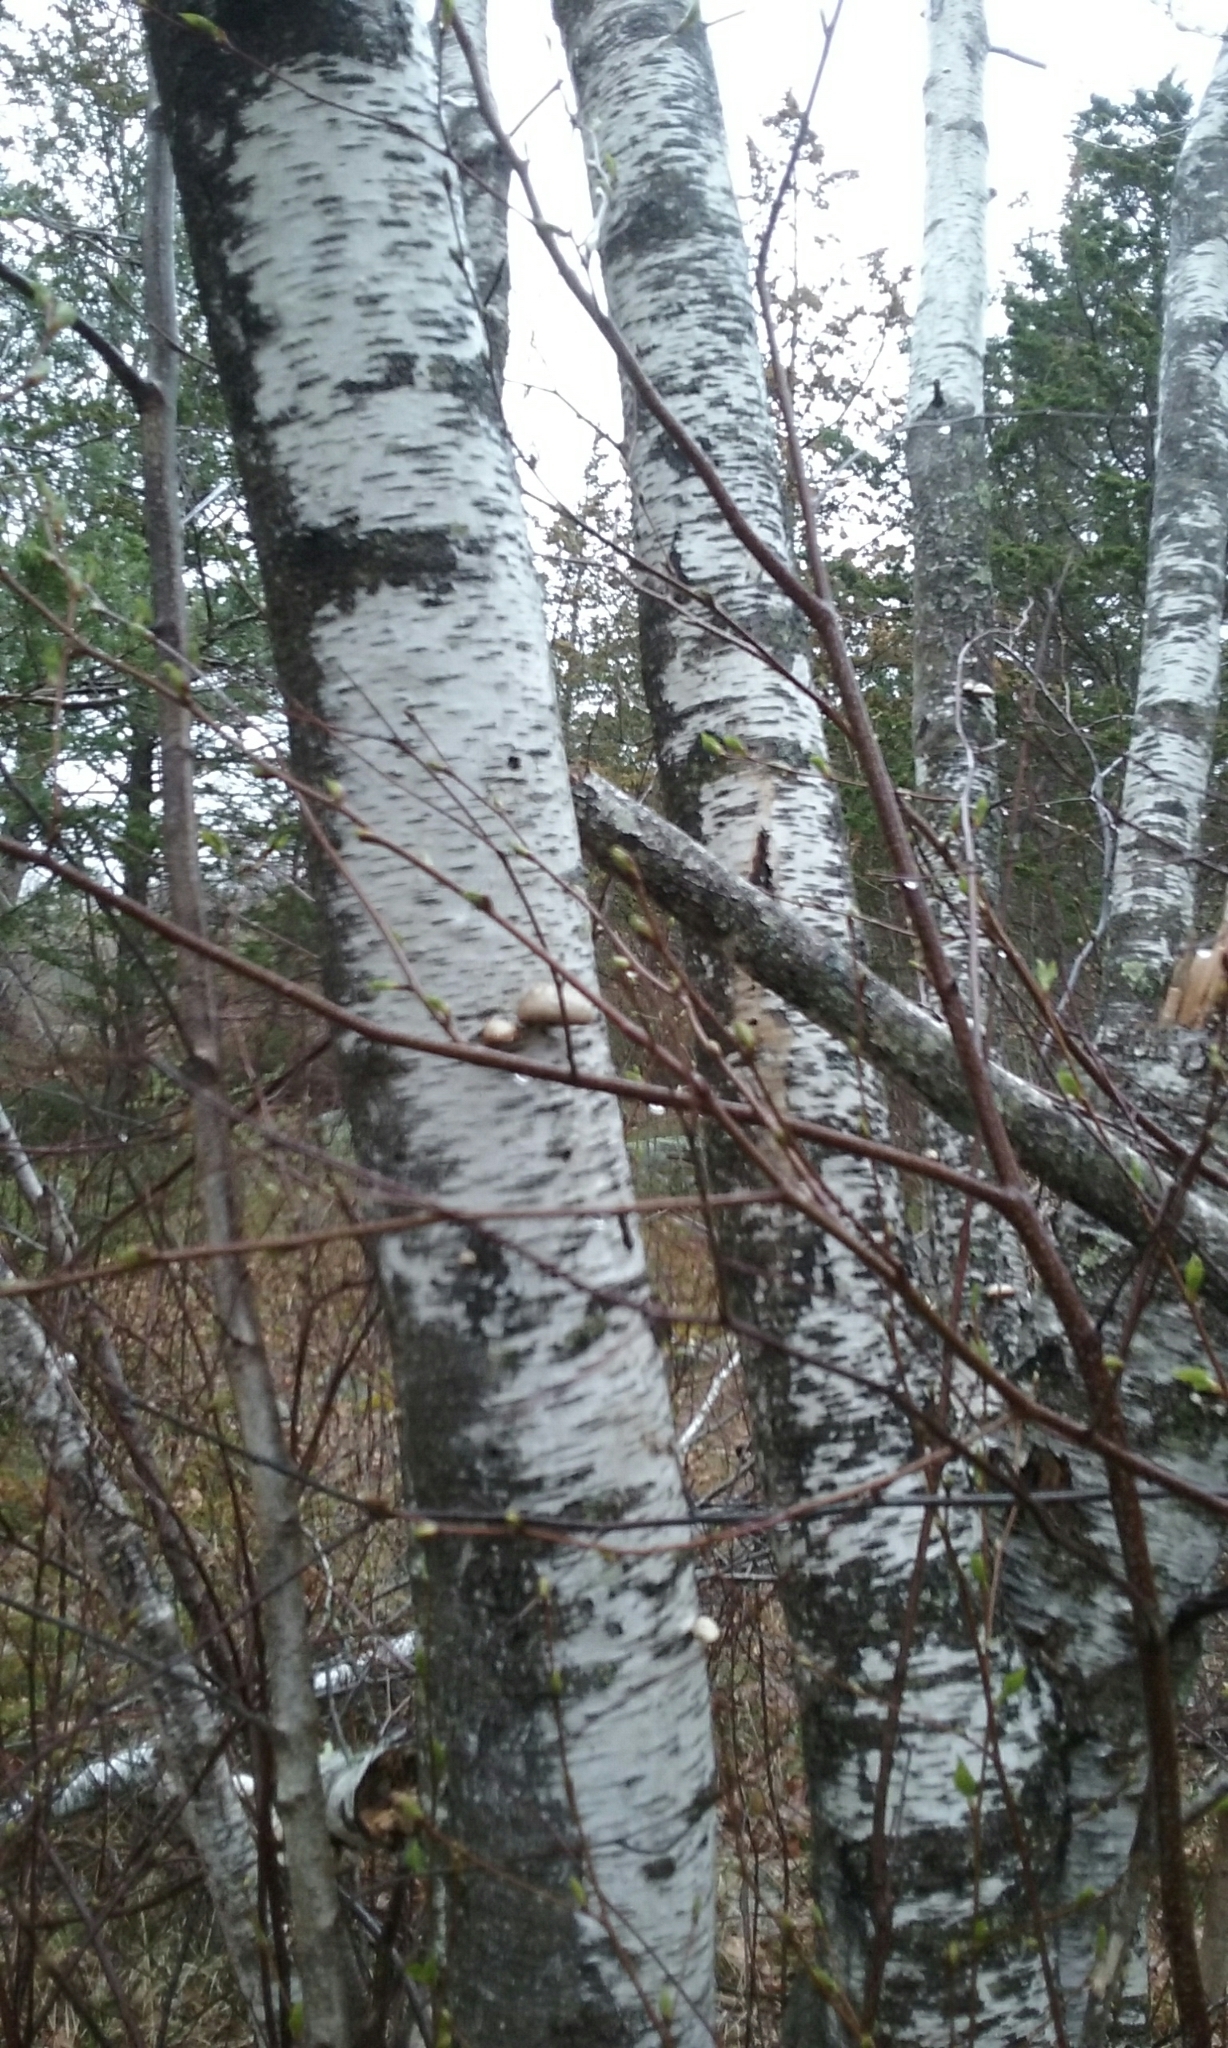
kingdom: Plantae
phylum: Tracheophyta
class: Magnoliopsida
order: Fagales
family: Betulaceae
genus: Betula
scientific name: Betula populifolia
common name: Fire birch
